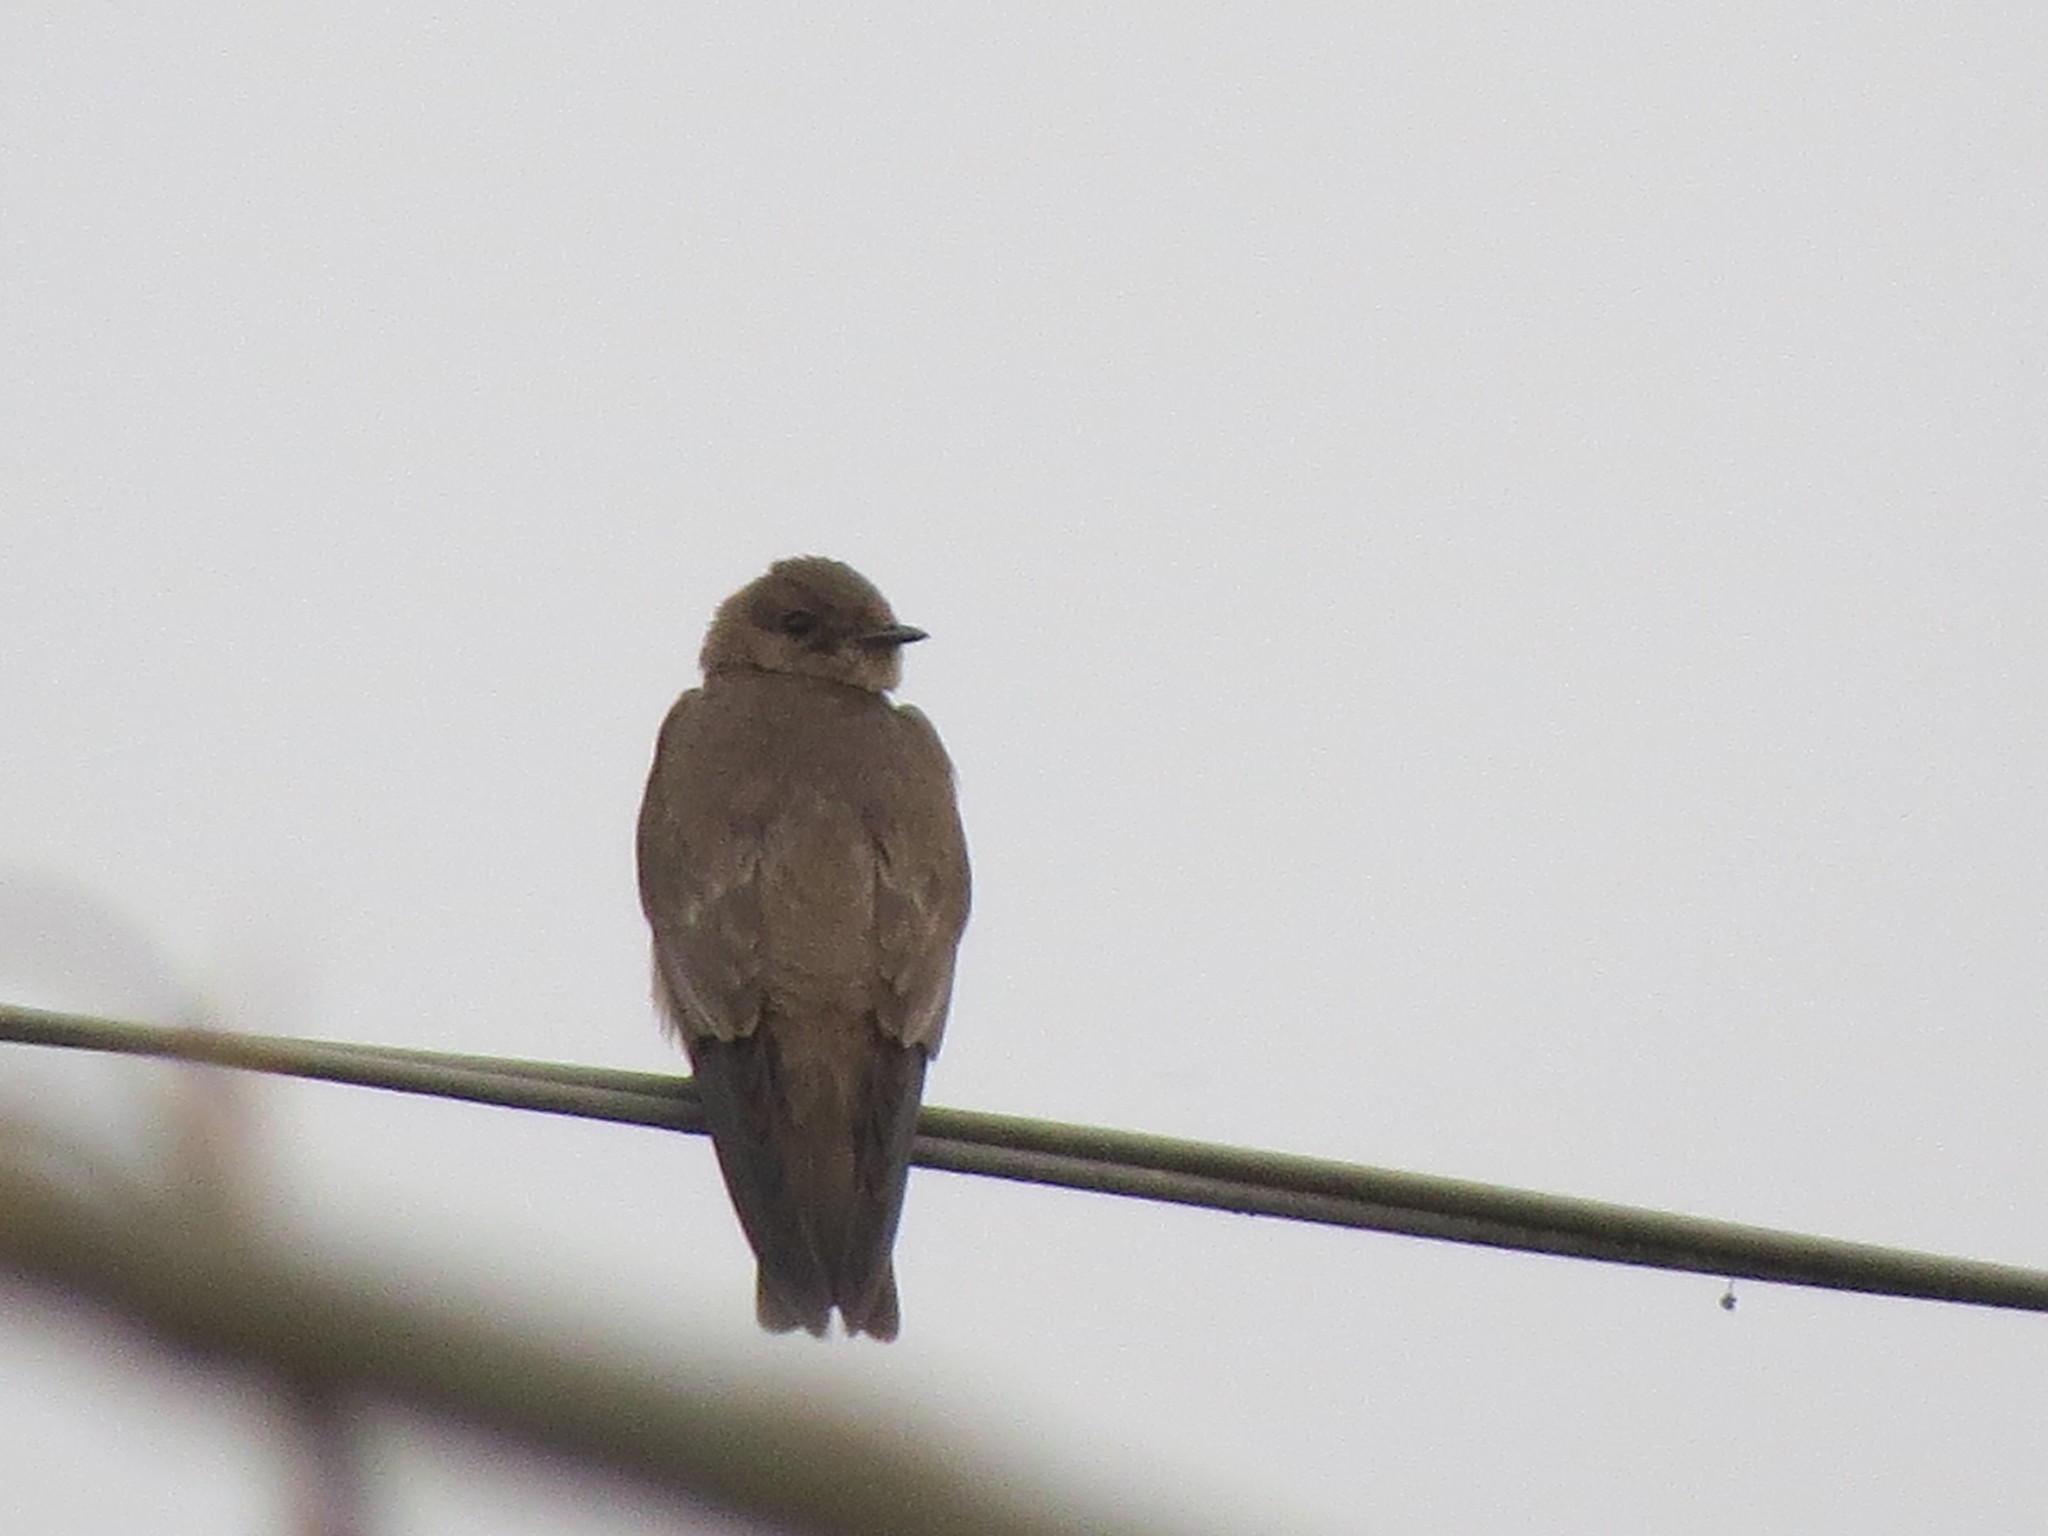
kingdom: Animalia
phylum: Chordata
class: Aves
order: Passeriformes
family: Hirundinidae
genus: Stelgidopteryx
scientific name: Stelgidopteryx serripennis
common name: Northern rough-winged swallow
